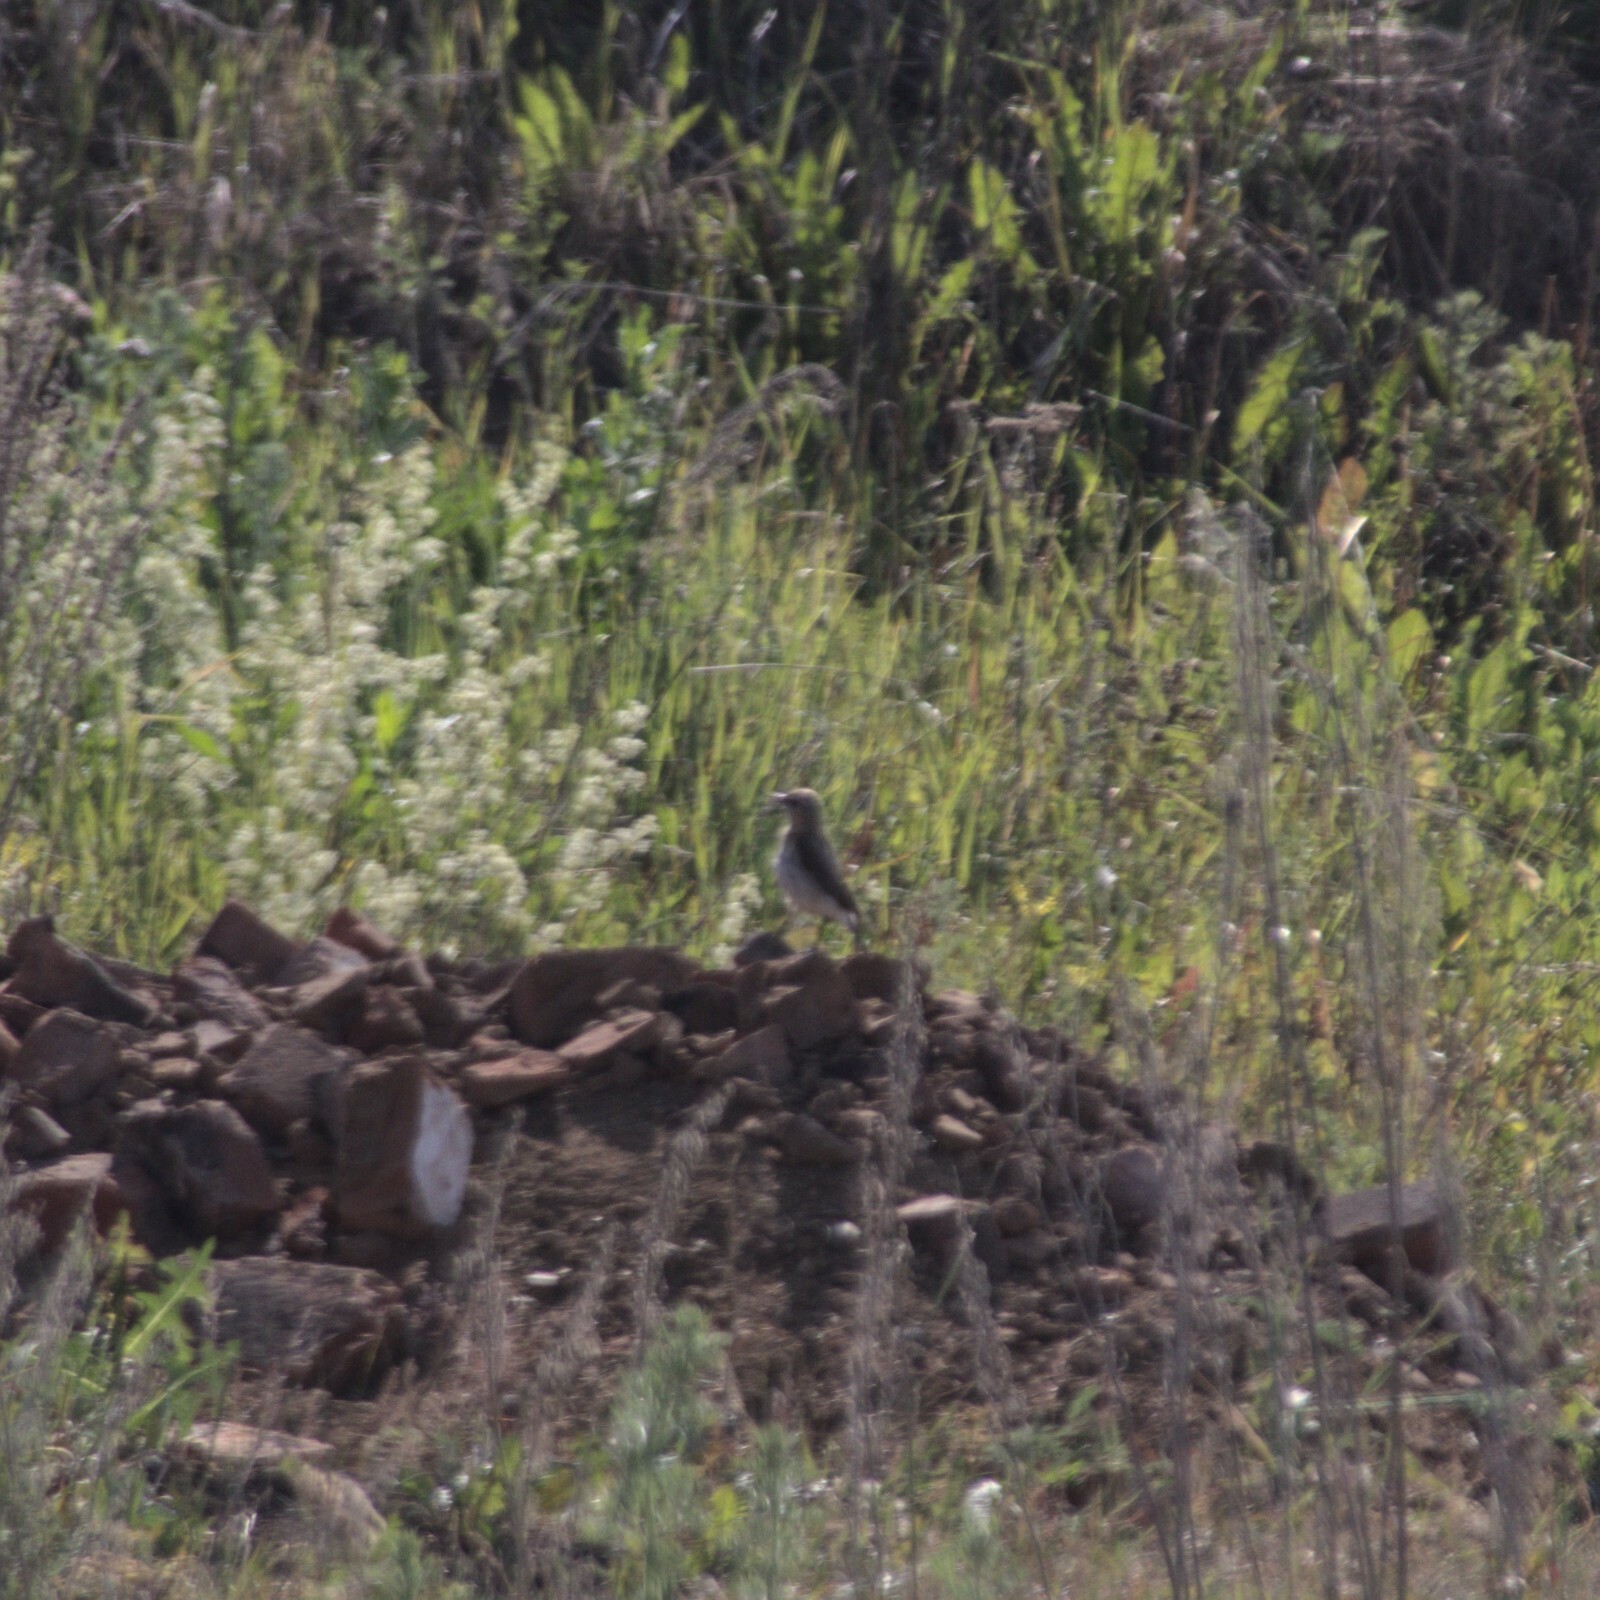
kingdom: Animalia
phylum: Chordata
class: Aves
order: Passeriformes
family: Muscicapidae
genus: Oenanthe
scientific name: Oenanthe oenanthe
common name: Northern wheatear
